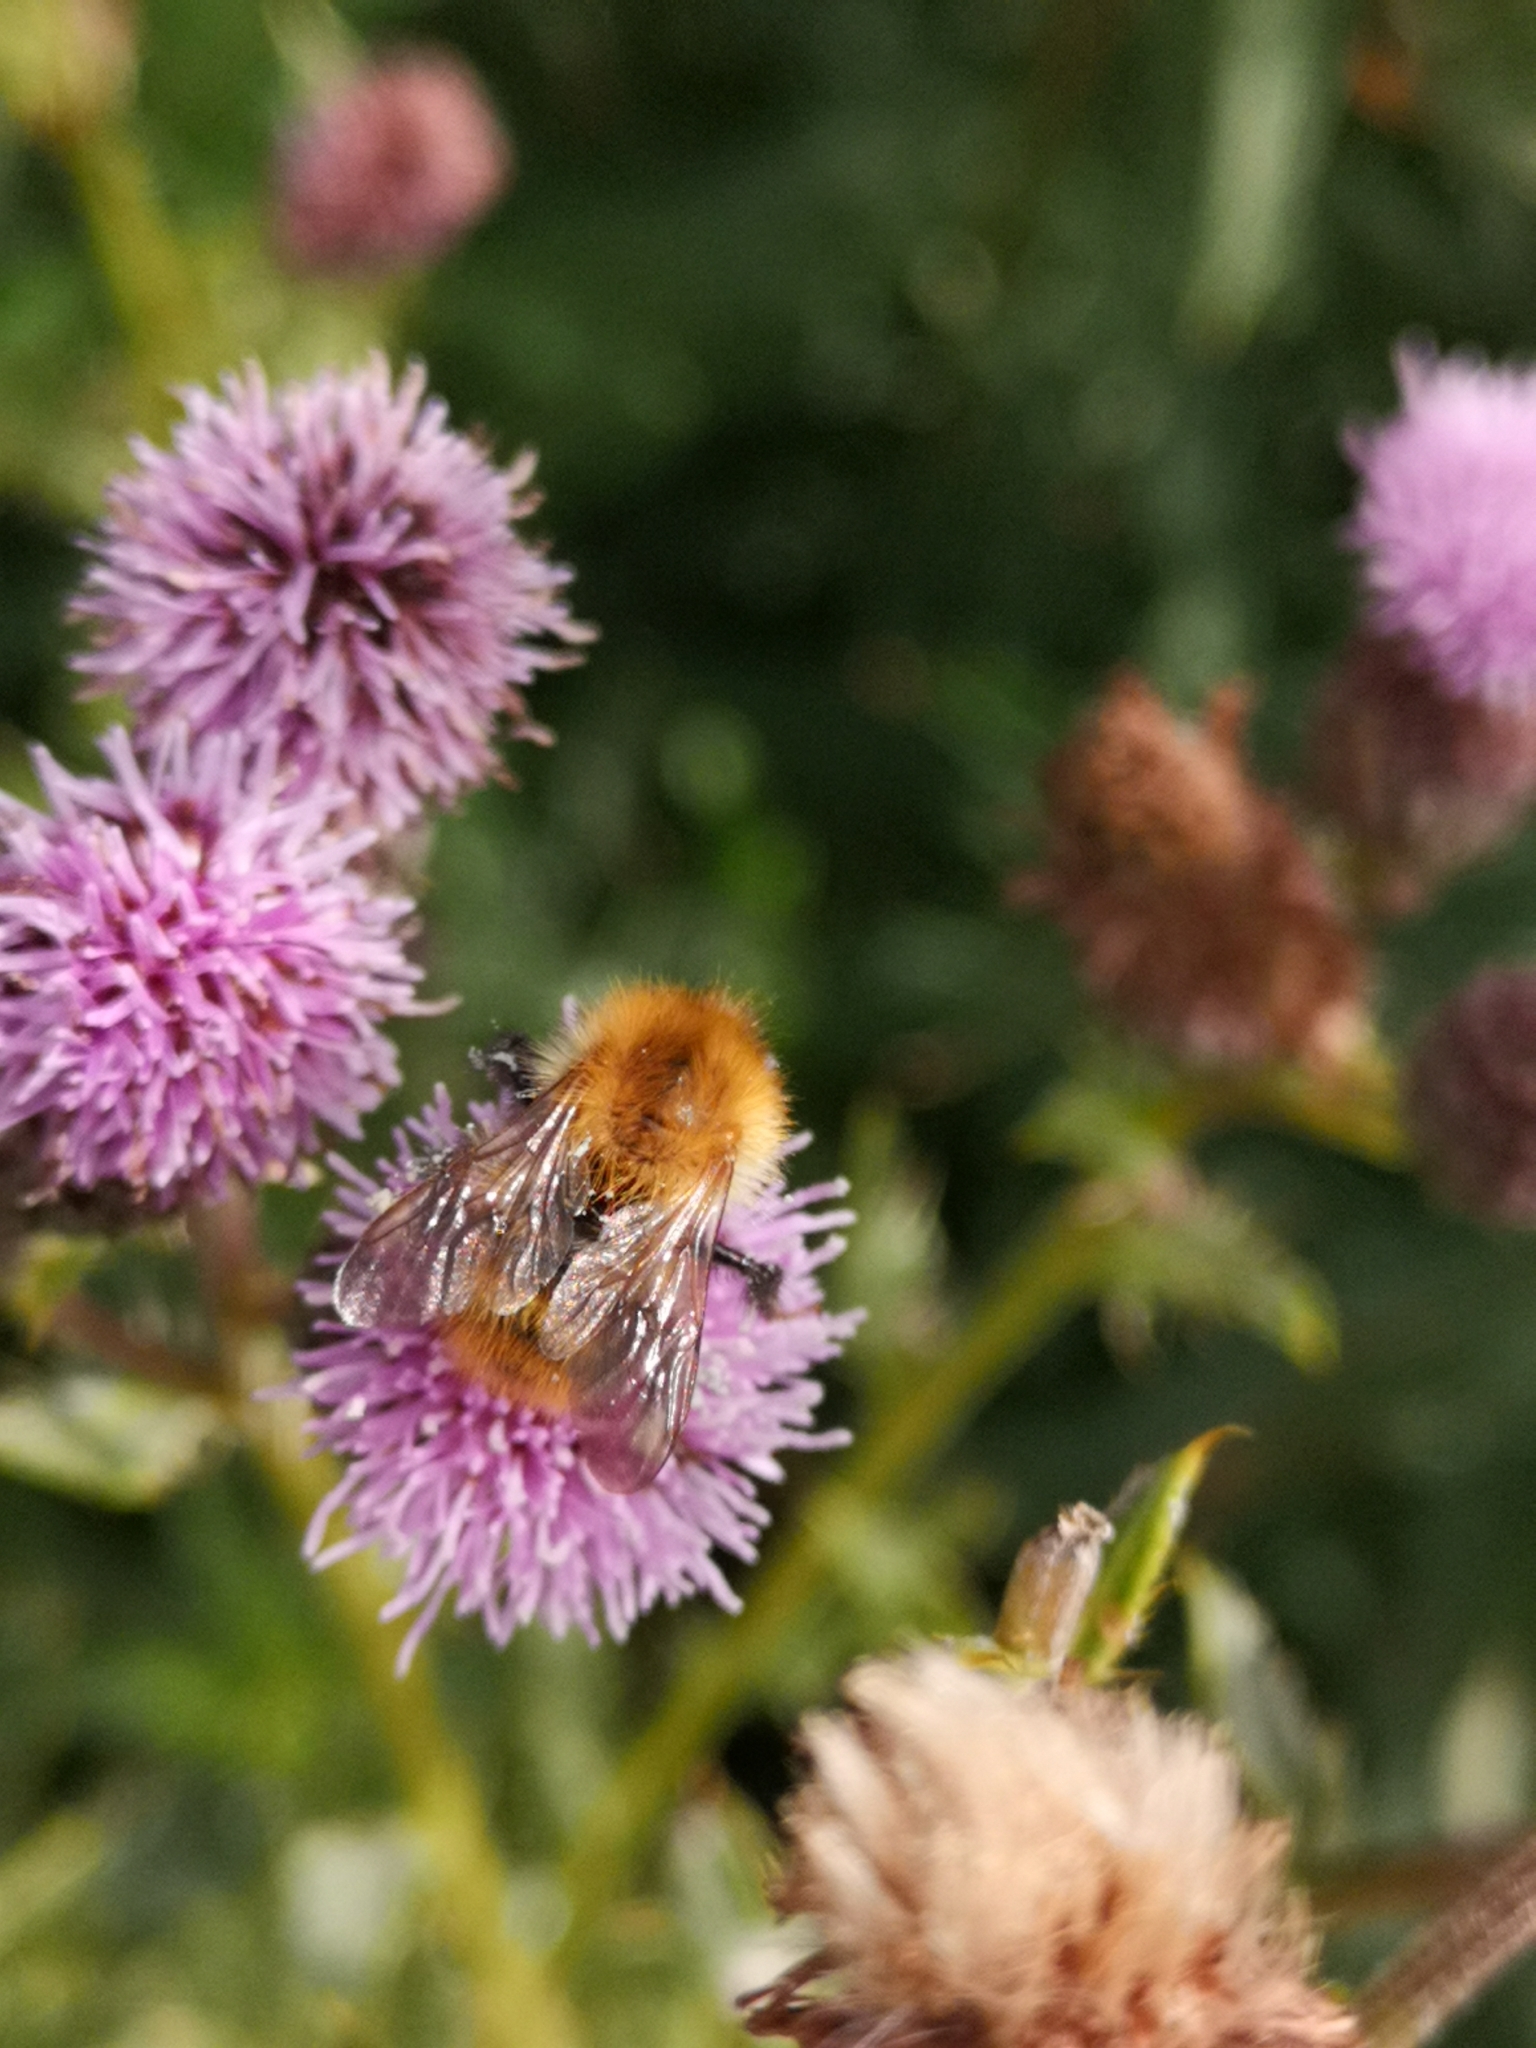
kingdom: Animalia
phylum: Arthropoda
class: Insecta
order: Hymenoptera
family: Apidae
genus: Bombus
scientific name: Bombus pascuorum
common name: Common carder bee
